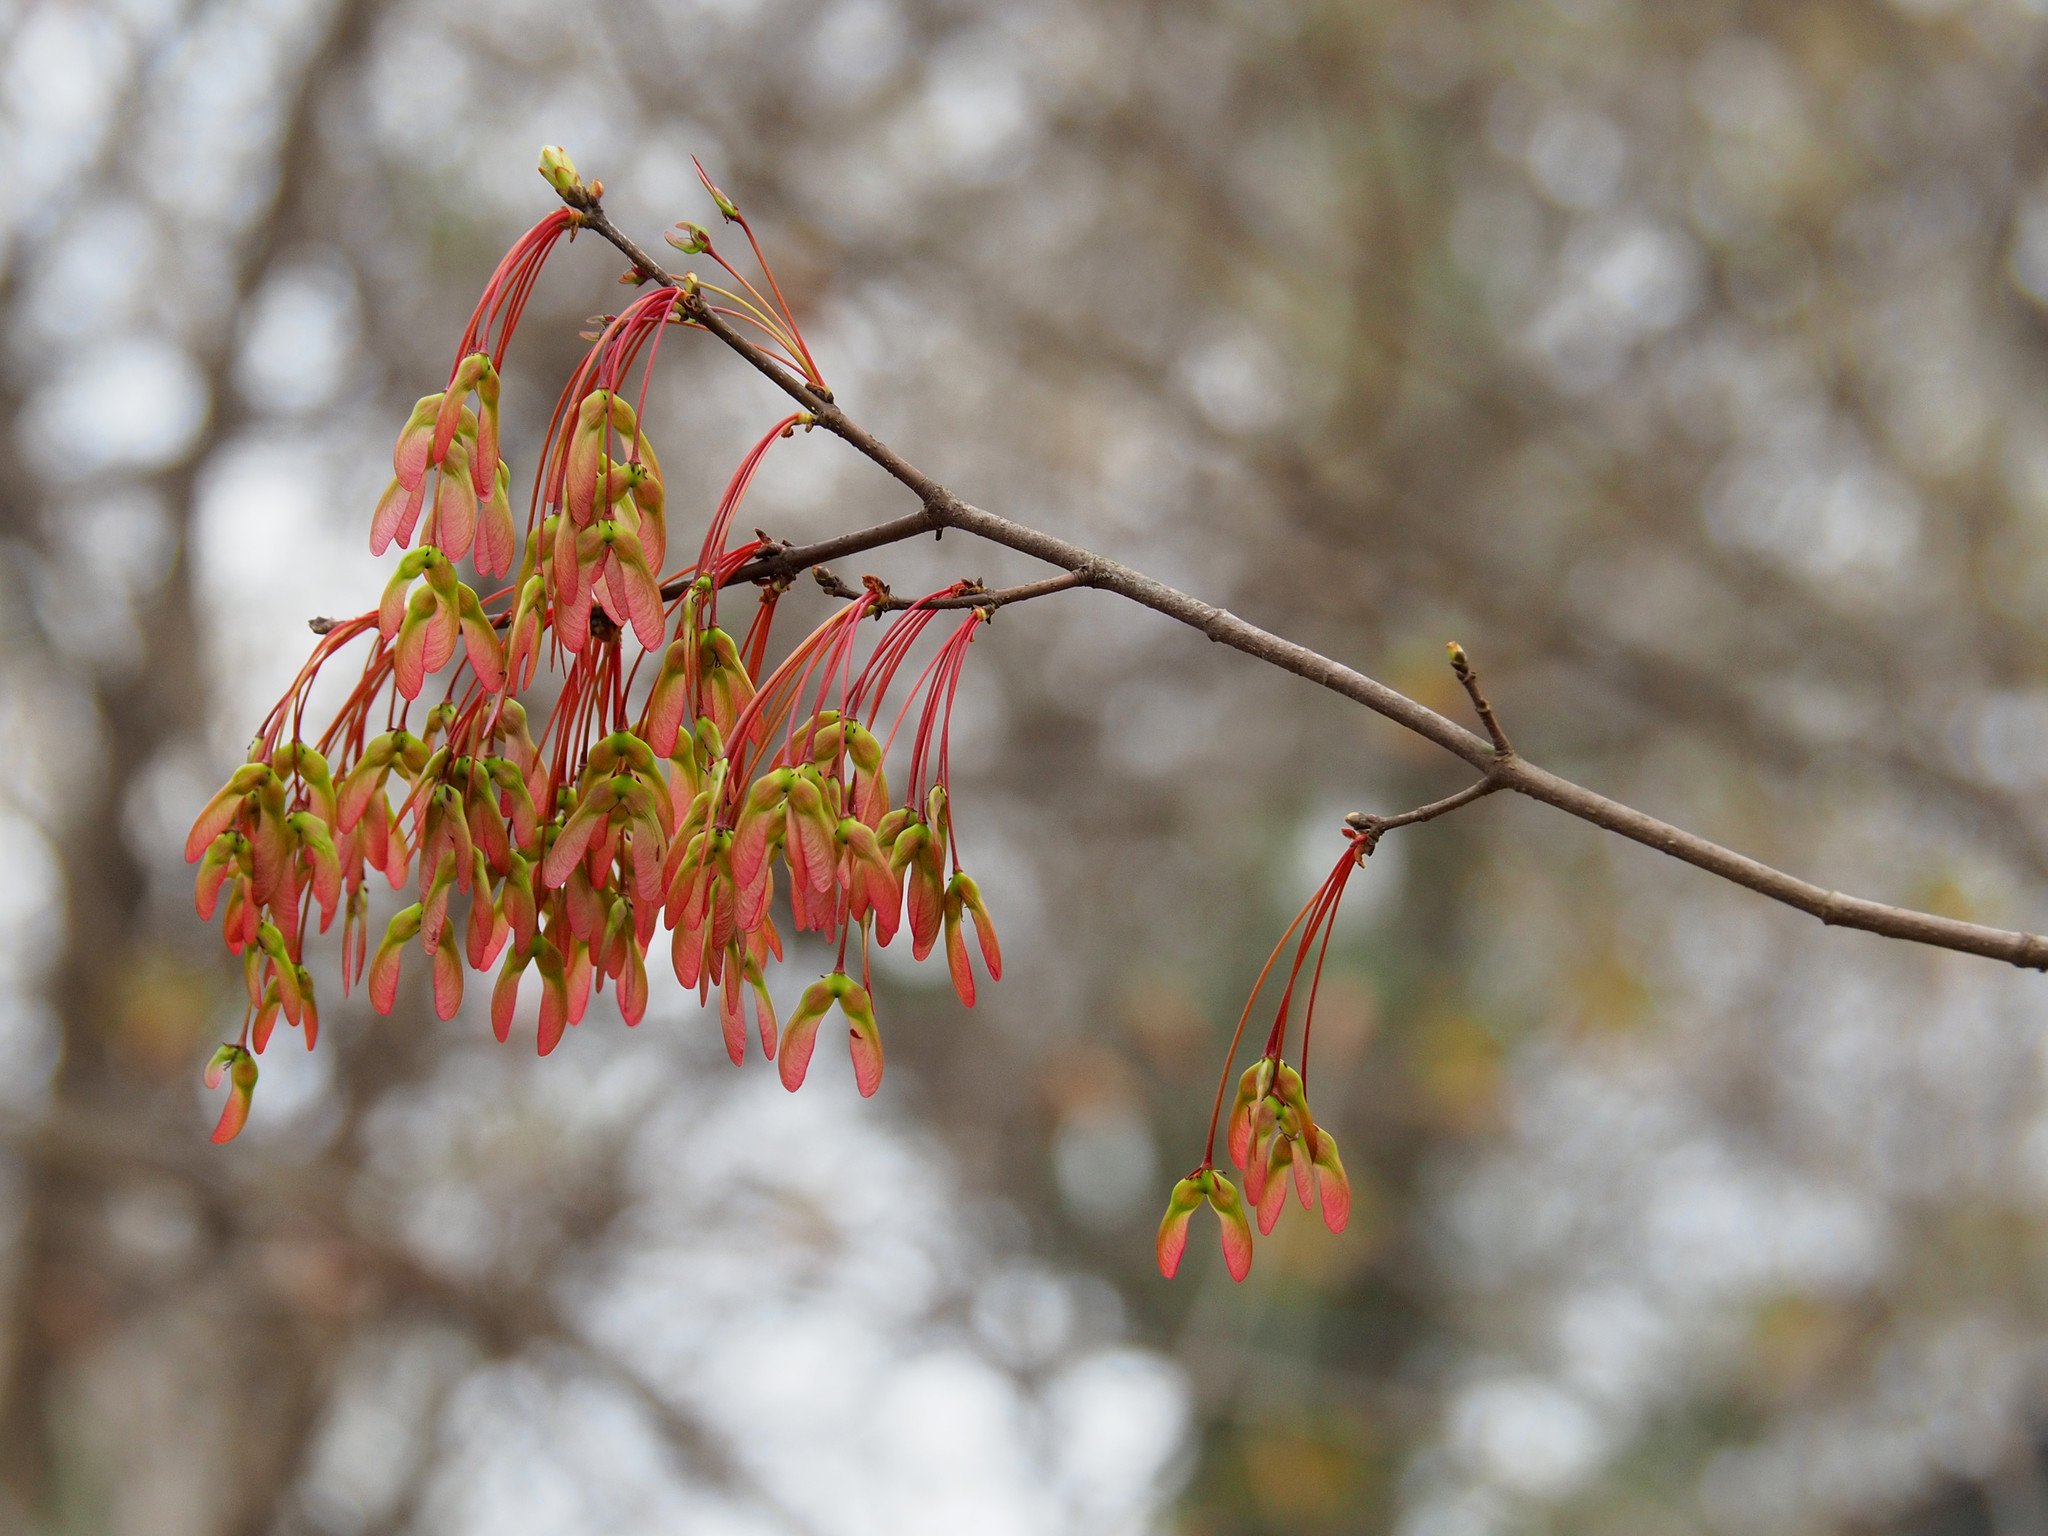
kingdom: Plantae
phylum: Tracheophyta
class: Magnoliopsida
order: Sapindales
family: Sapindaceae
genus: Acer
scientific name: Acer rubrum
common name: Red maple
